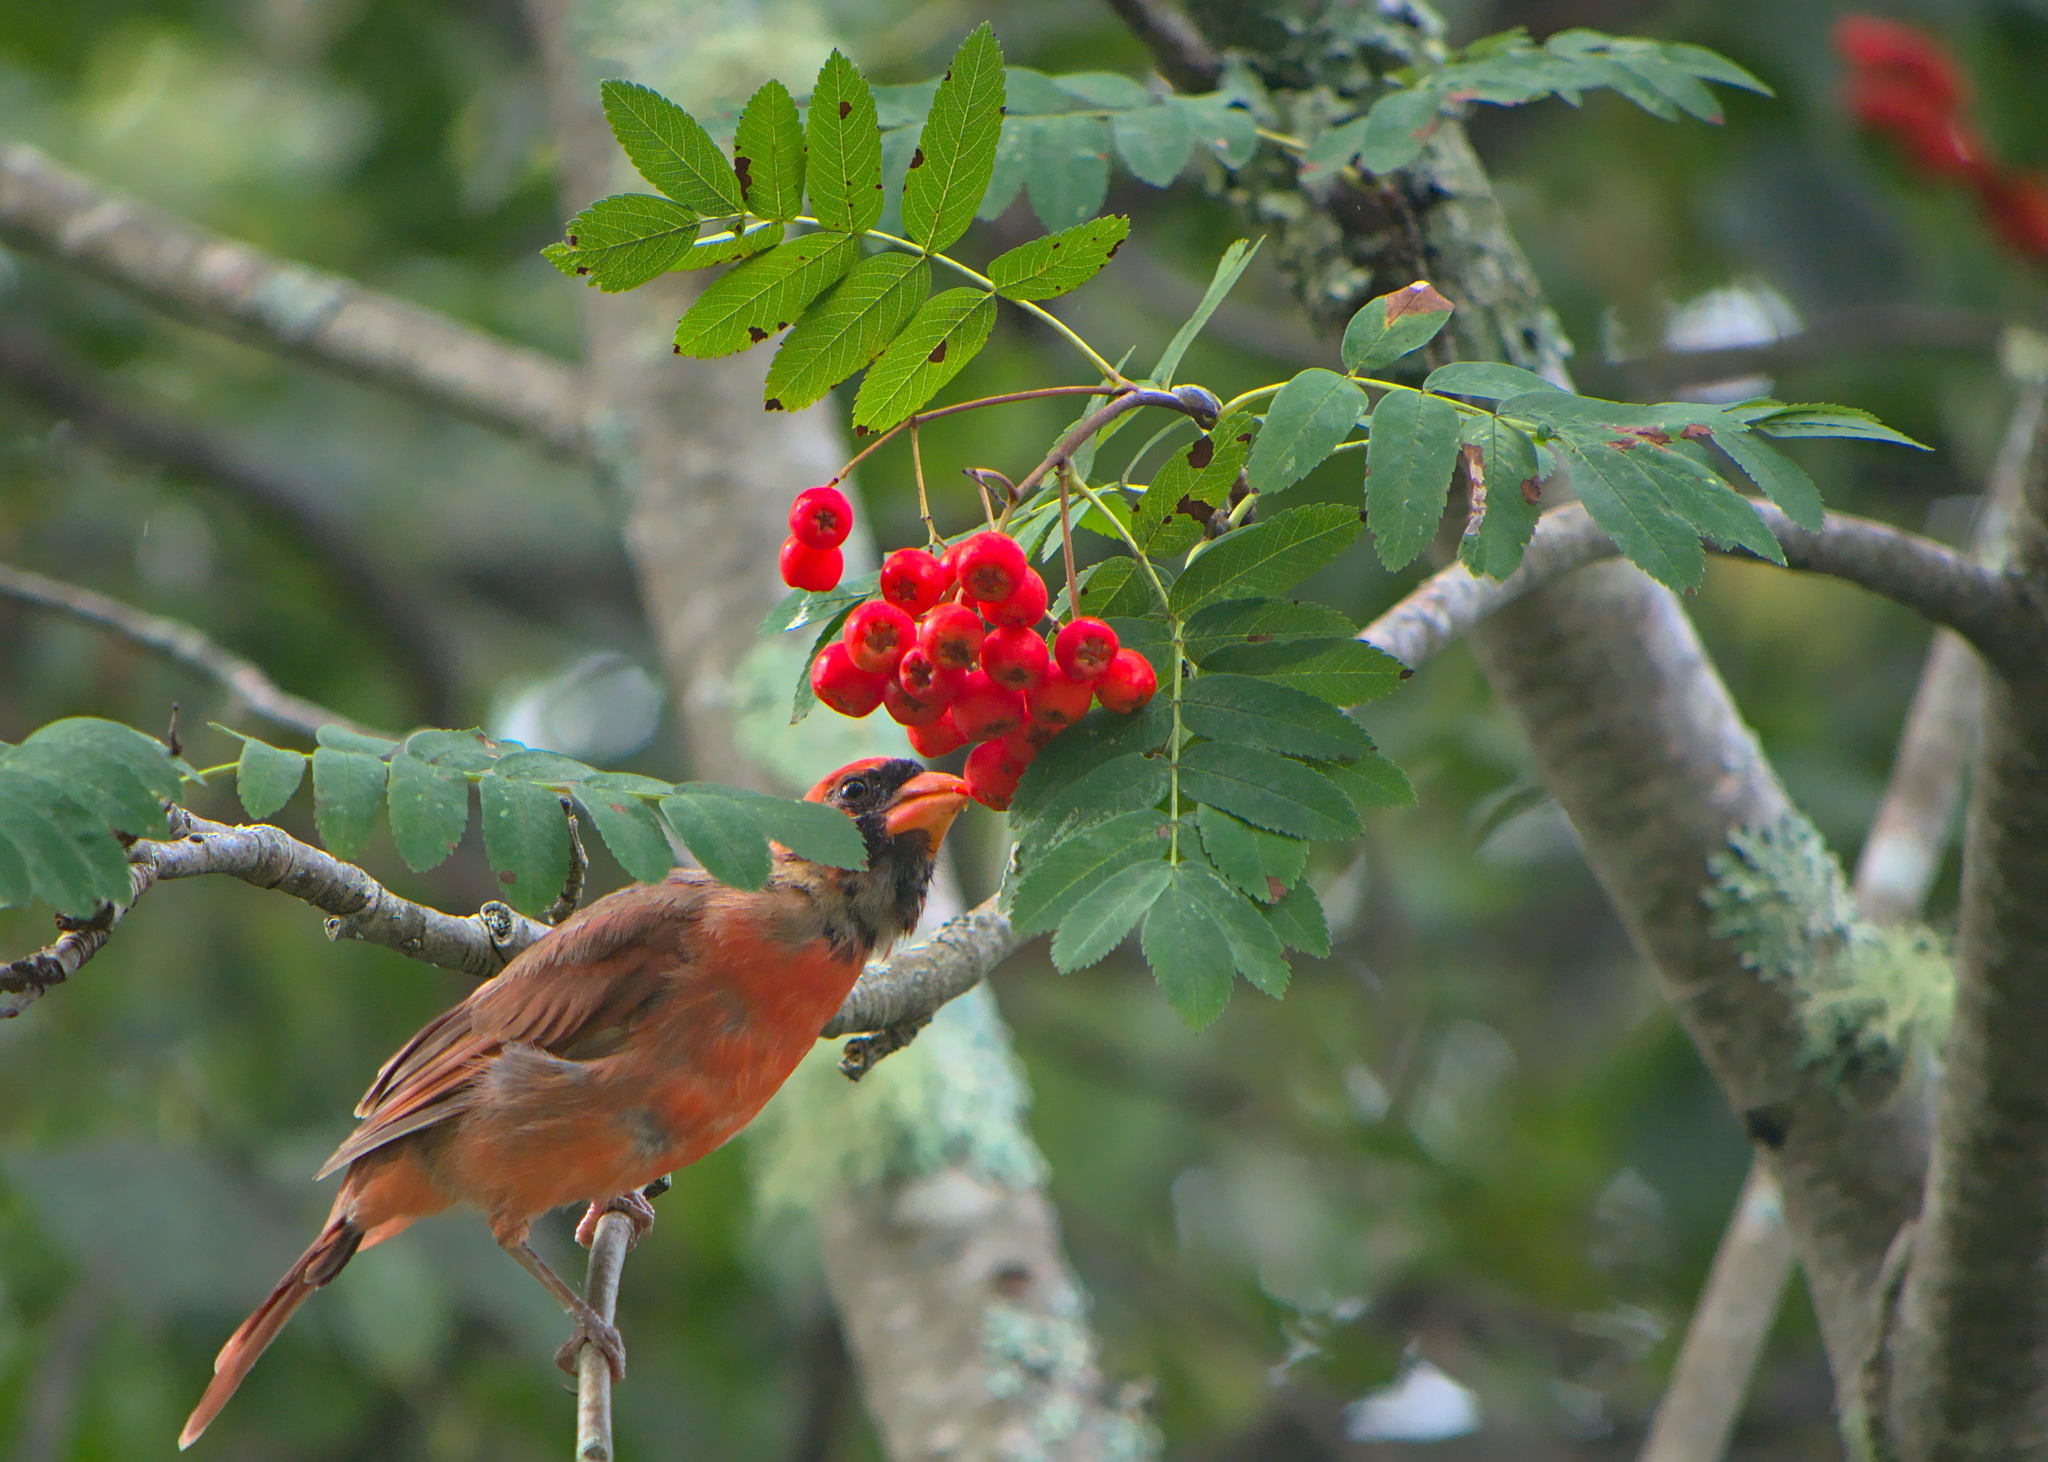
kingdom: Animalia
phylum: Chordata
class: Aves
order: Passeriformes
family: Cardinalidae
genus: Cardinalis
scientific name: Cardinalis cardinalis
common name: Northern cardinal
